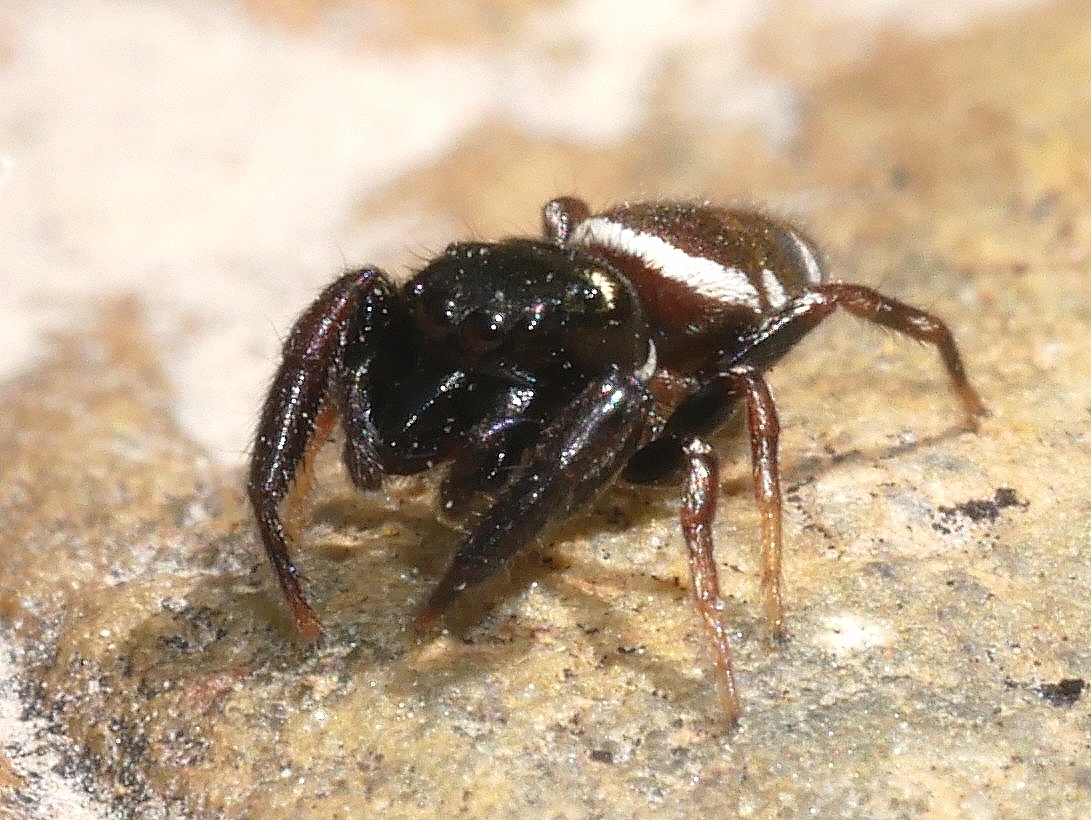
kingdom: Animalia
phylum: Arthropoda
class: Arachnida
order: Araneae
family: Salticidae
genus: Sassacus
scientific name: Sassacus vitis
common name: Jumping spiders
